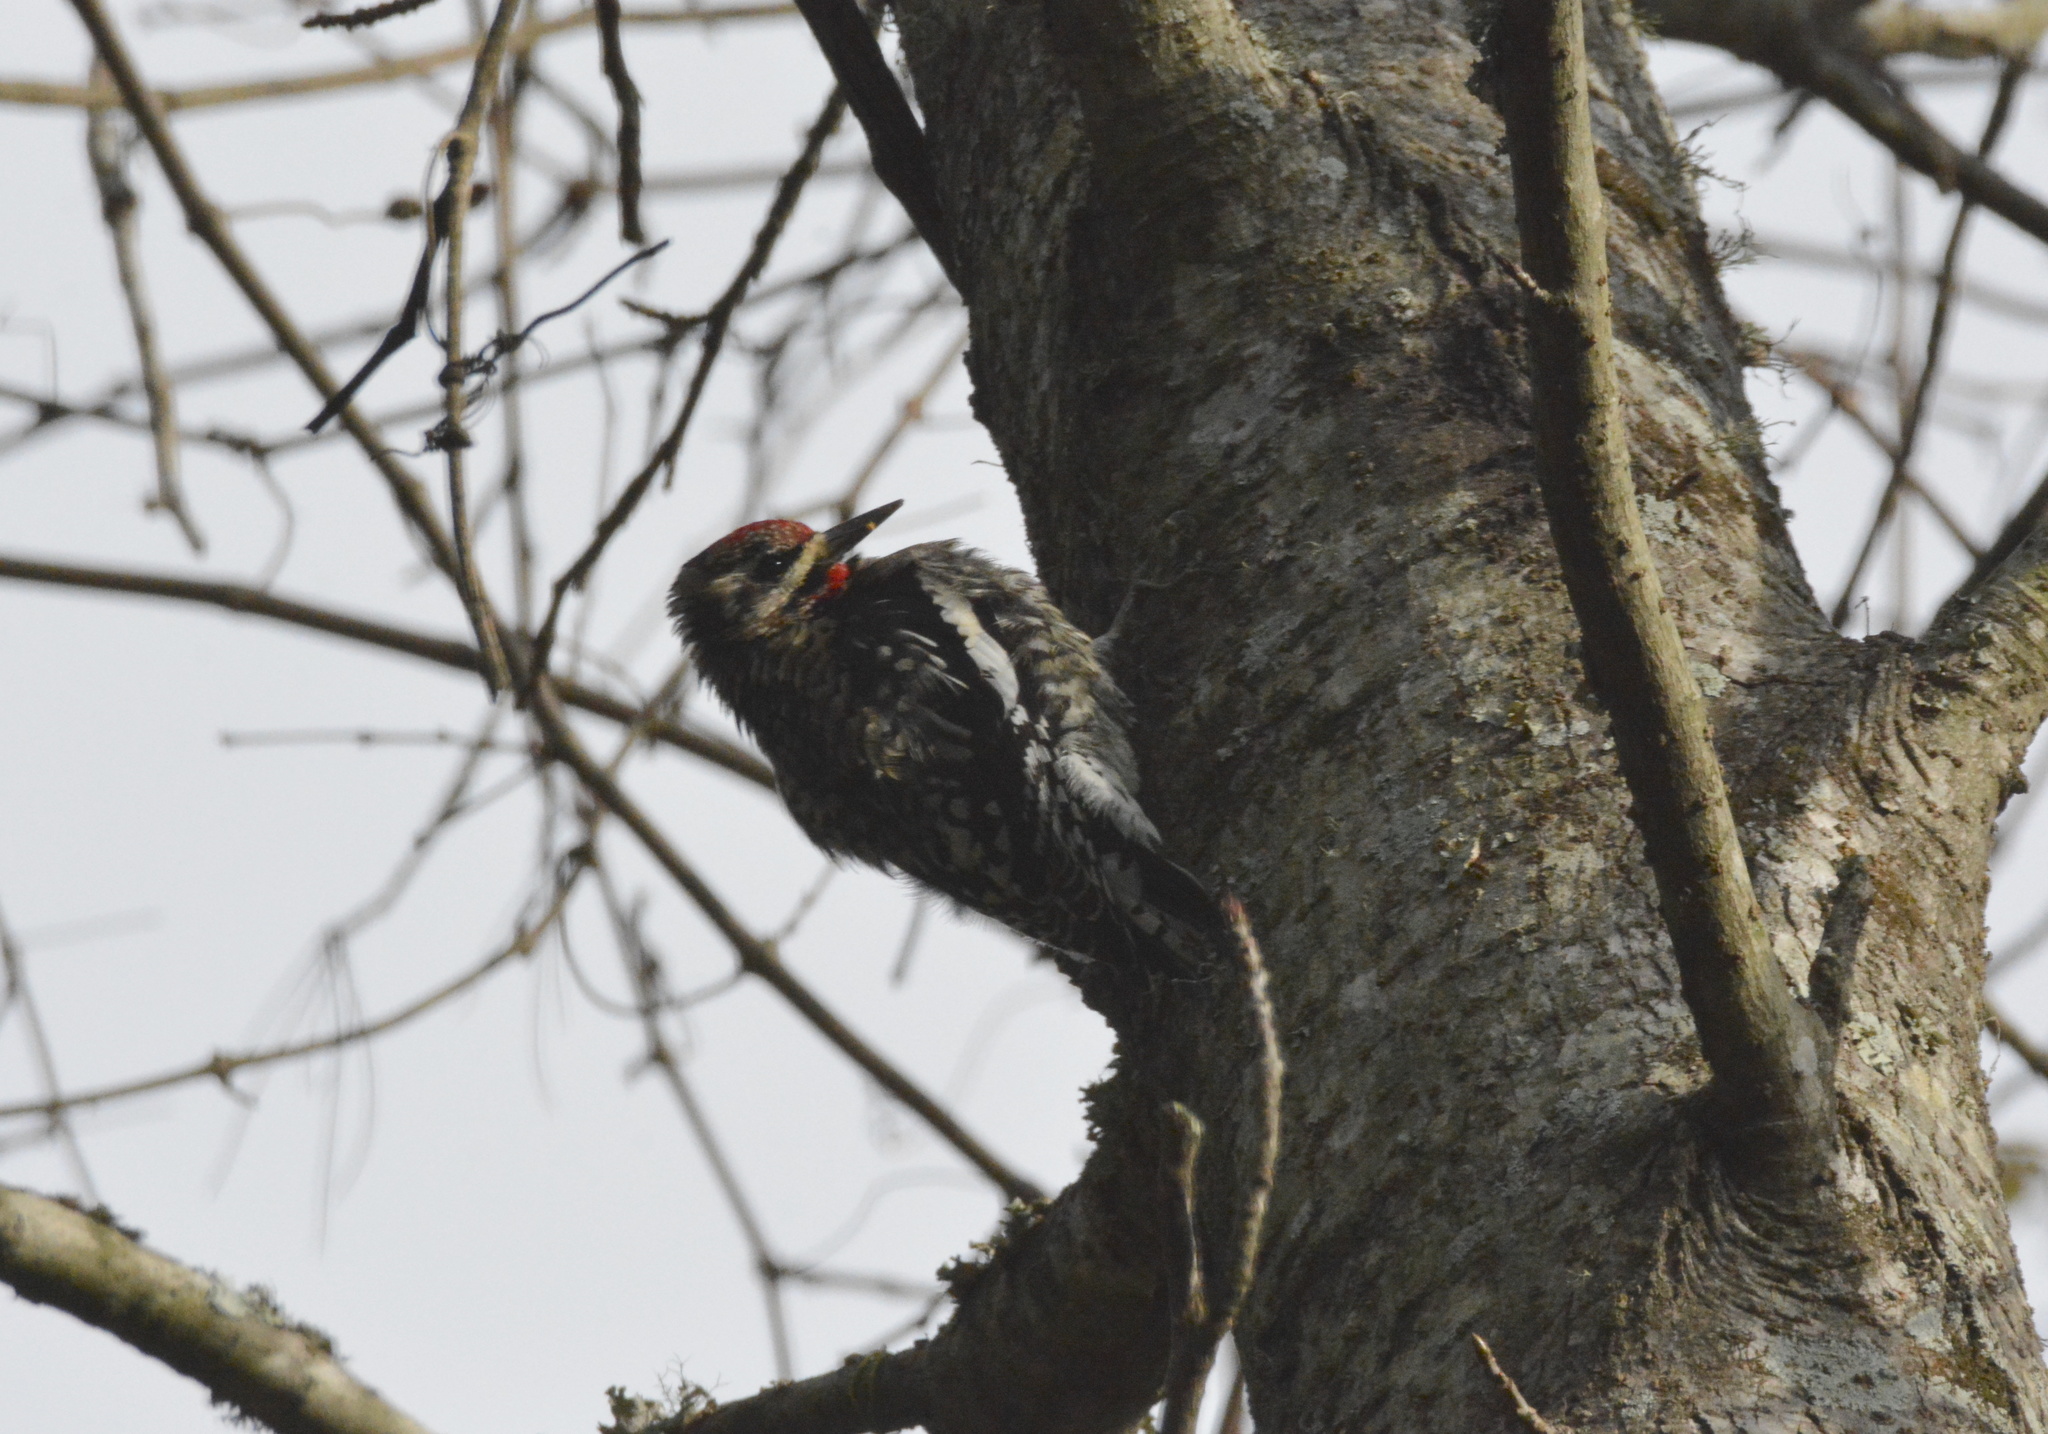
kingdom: Animalia
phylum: Chordata
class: Aves
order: Piciformes
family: Picidae
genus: Sphyrapicus
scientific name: Sphyrapicus varius
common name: Yellow-bellied sapsucker
